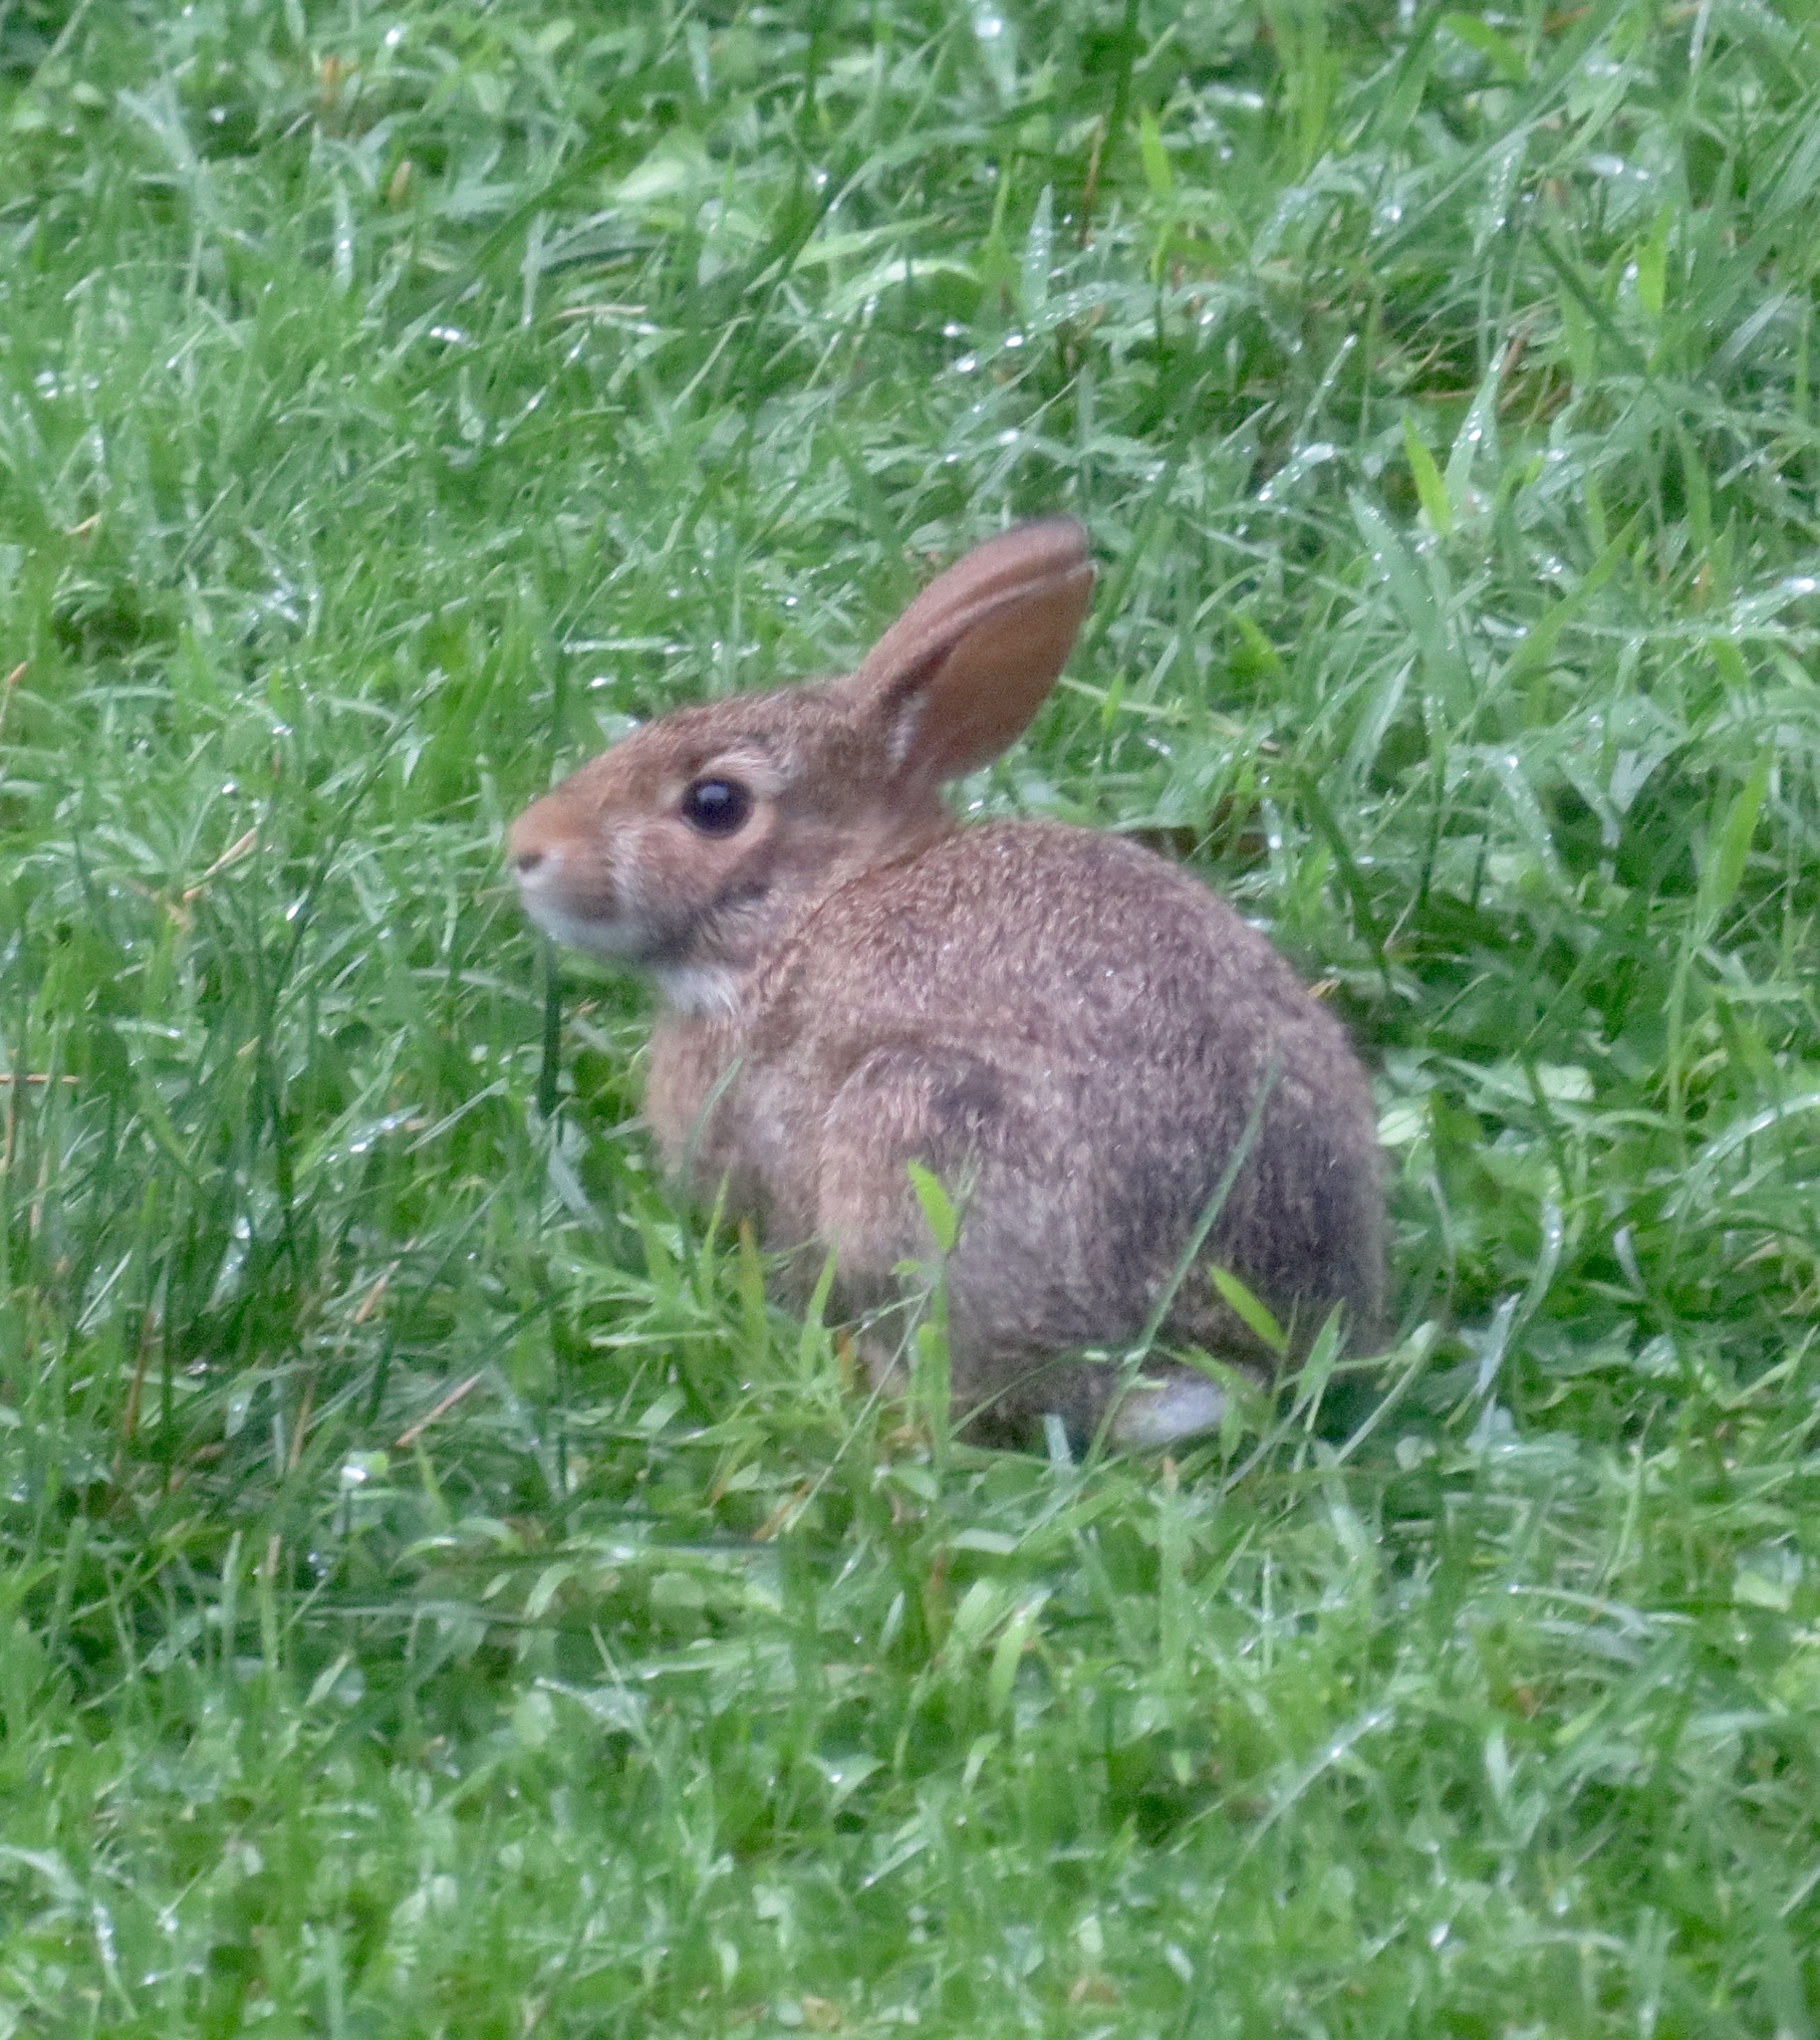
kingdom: Animalia
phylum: Chordata
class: Mammalia
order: Lagomorpha
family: Leporidae
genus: Sylvilagus
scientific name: Sylvilagus floridanus
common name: Eastern cottontail
